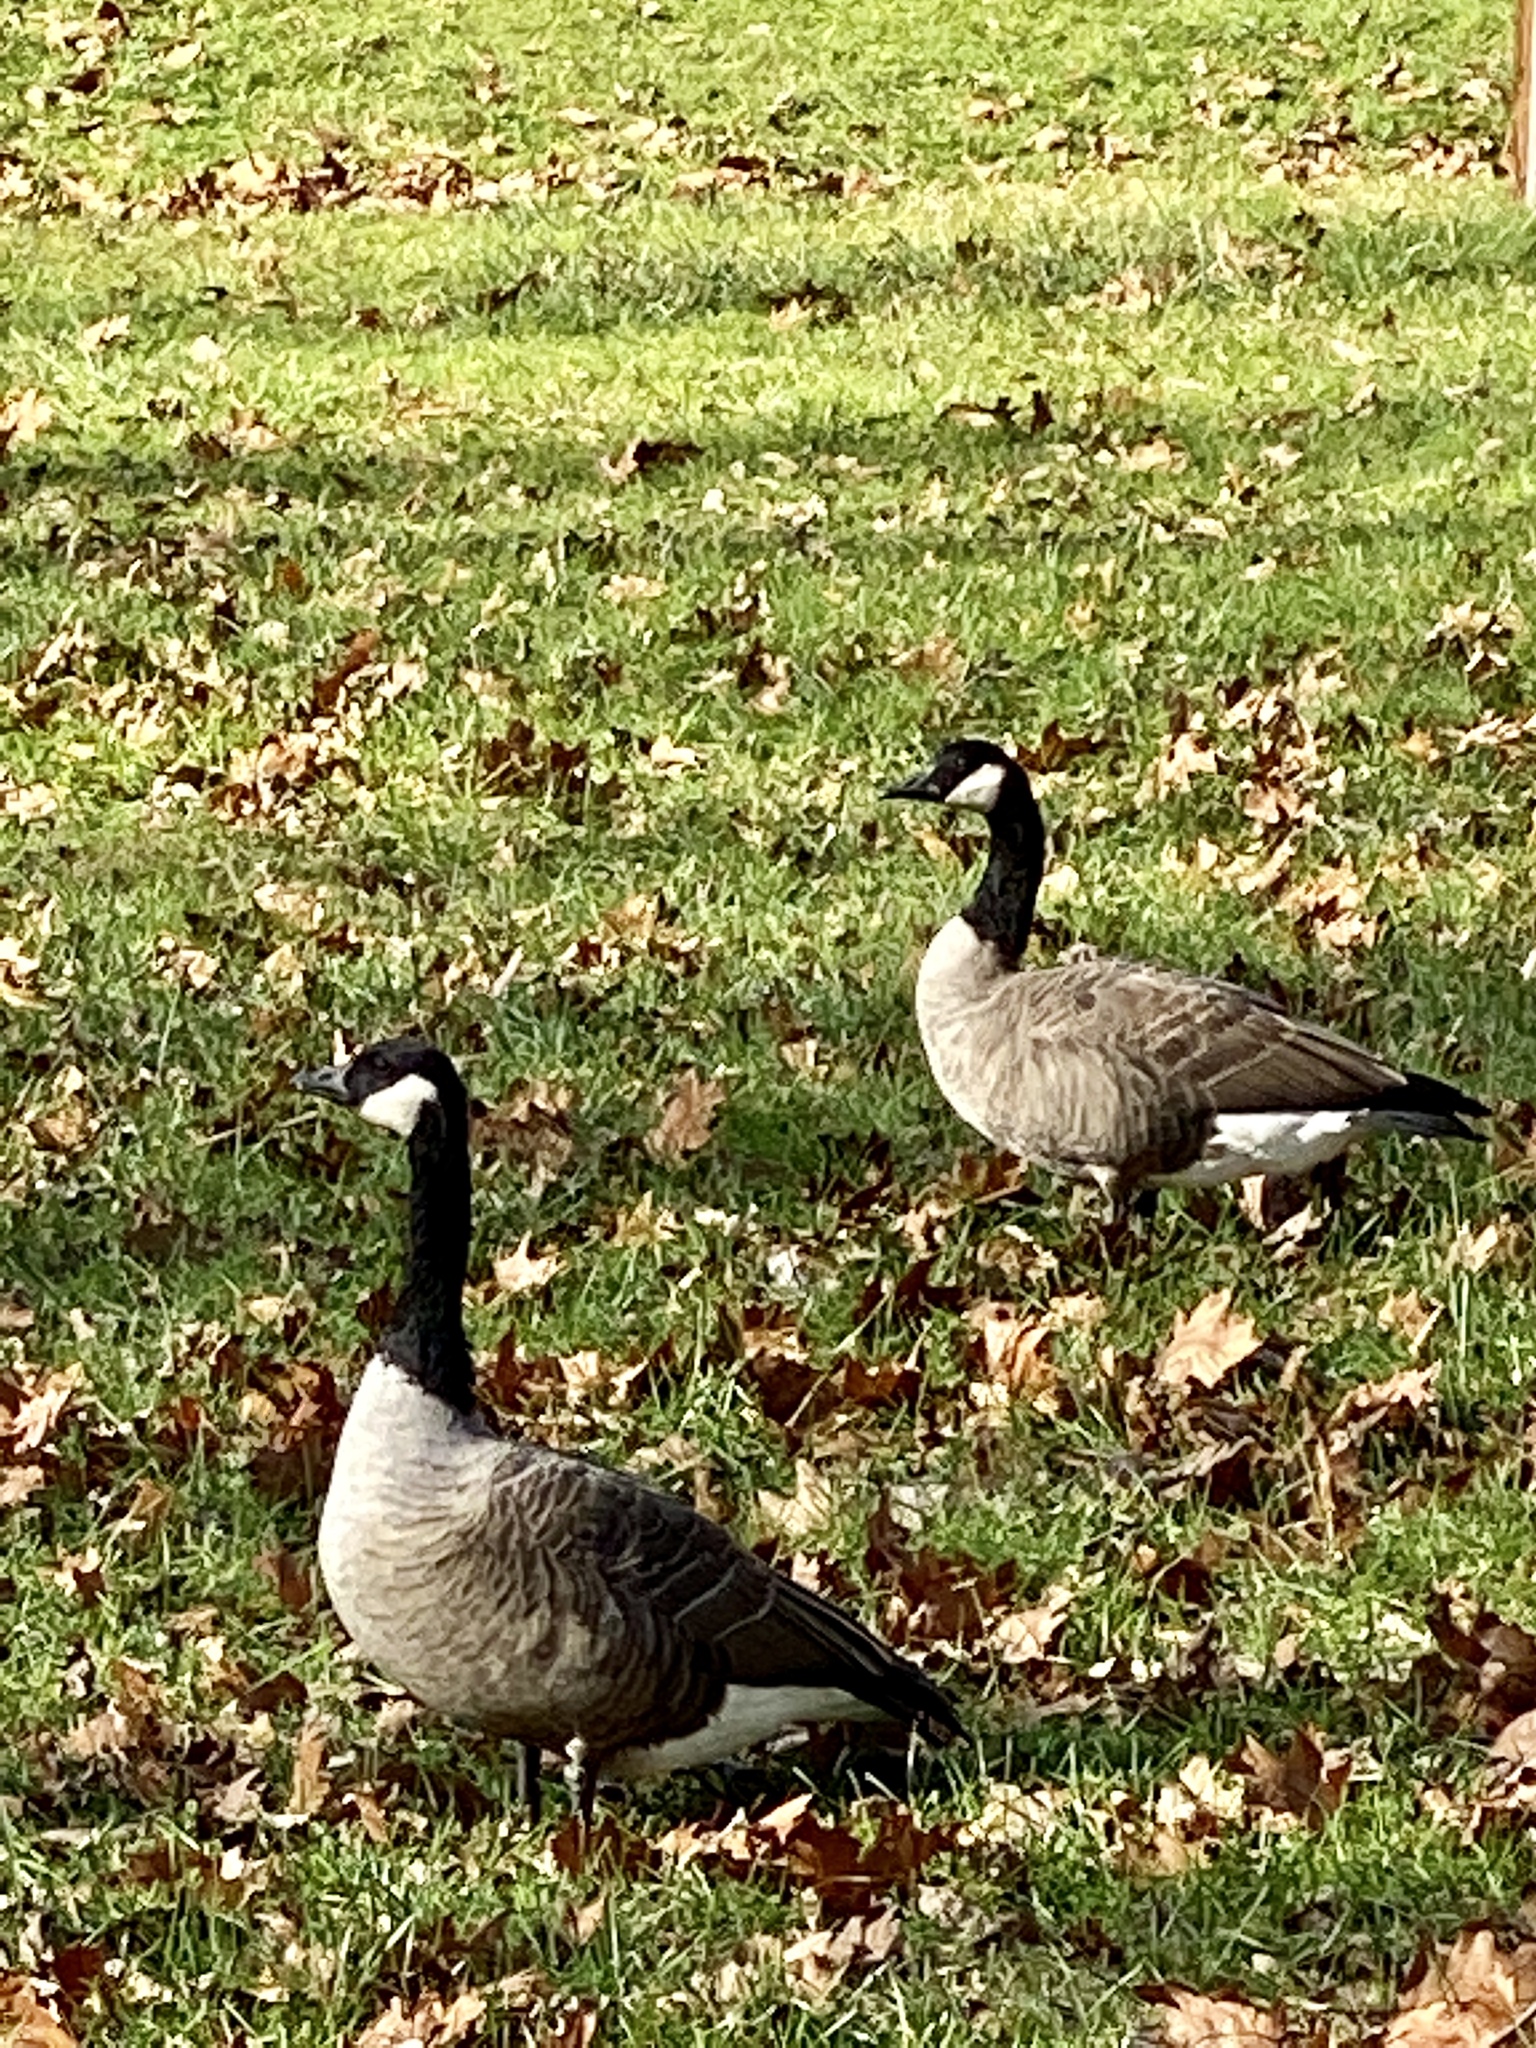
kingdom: Animalia
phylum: Chordata
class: Aves
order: Anseriformes
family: Anatidae
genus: Branta
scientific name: Branta canadensis
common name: Canada goose
